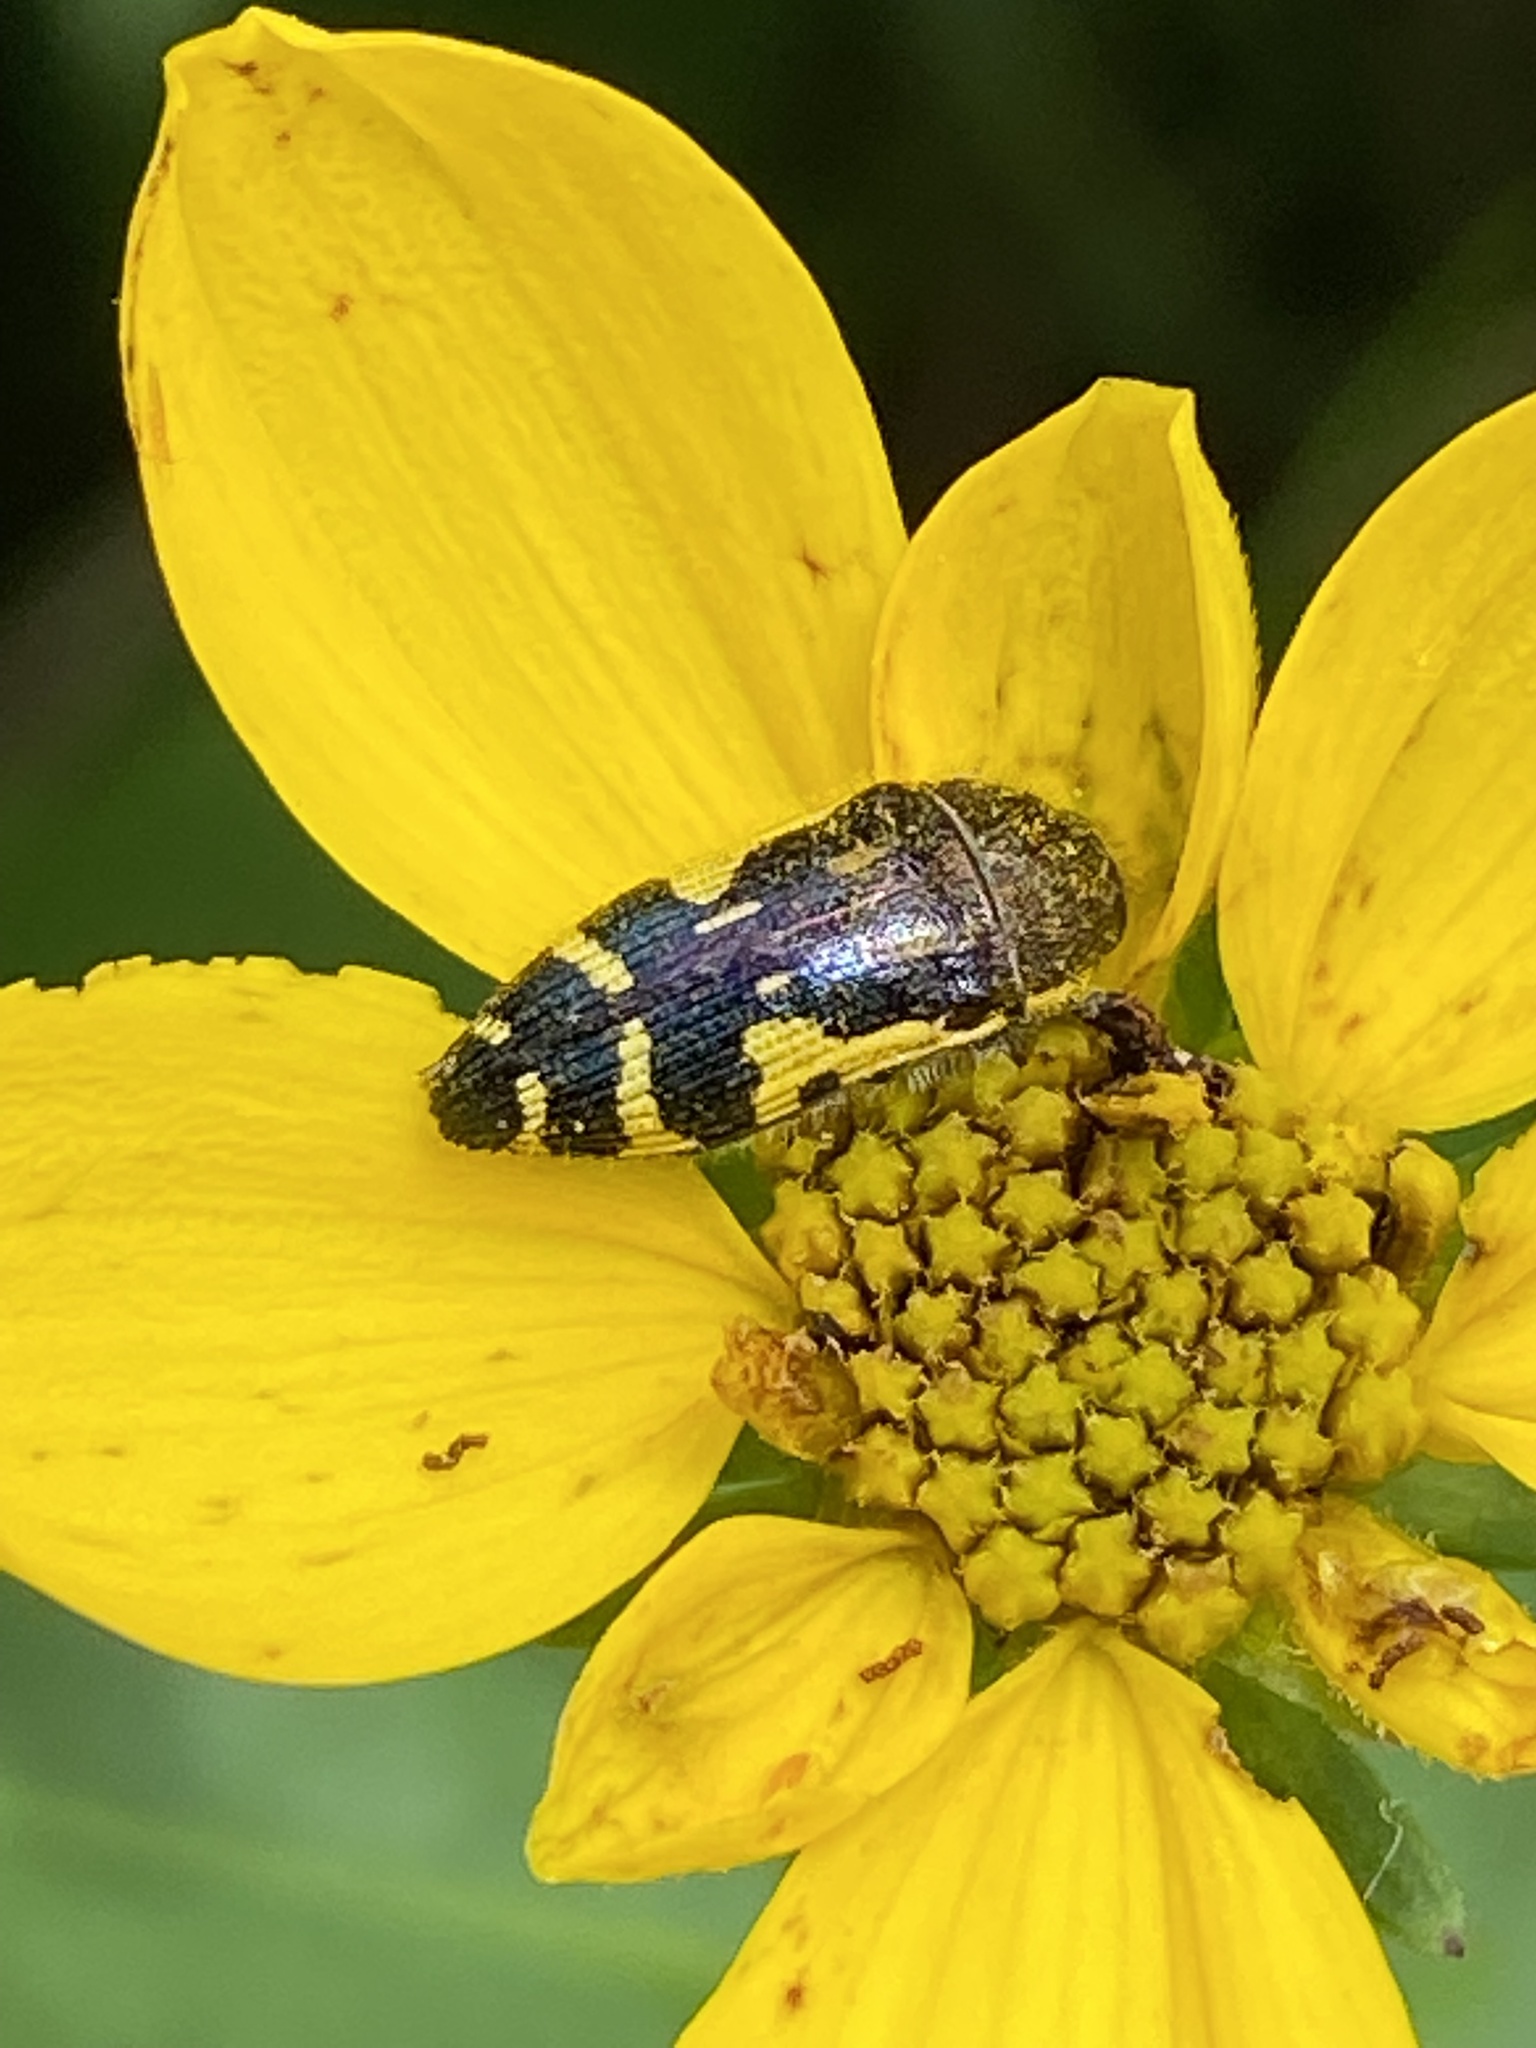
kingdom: Animalia
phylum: Arthropoda
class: Insecta
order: Coleoptera
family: Buprestidae
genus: Acmaeodera
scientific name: Acmaeodera pulchella
